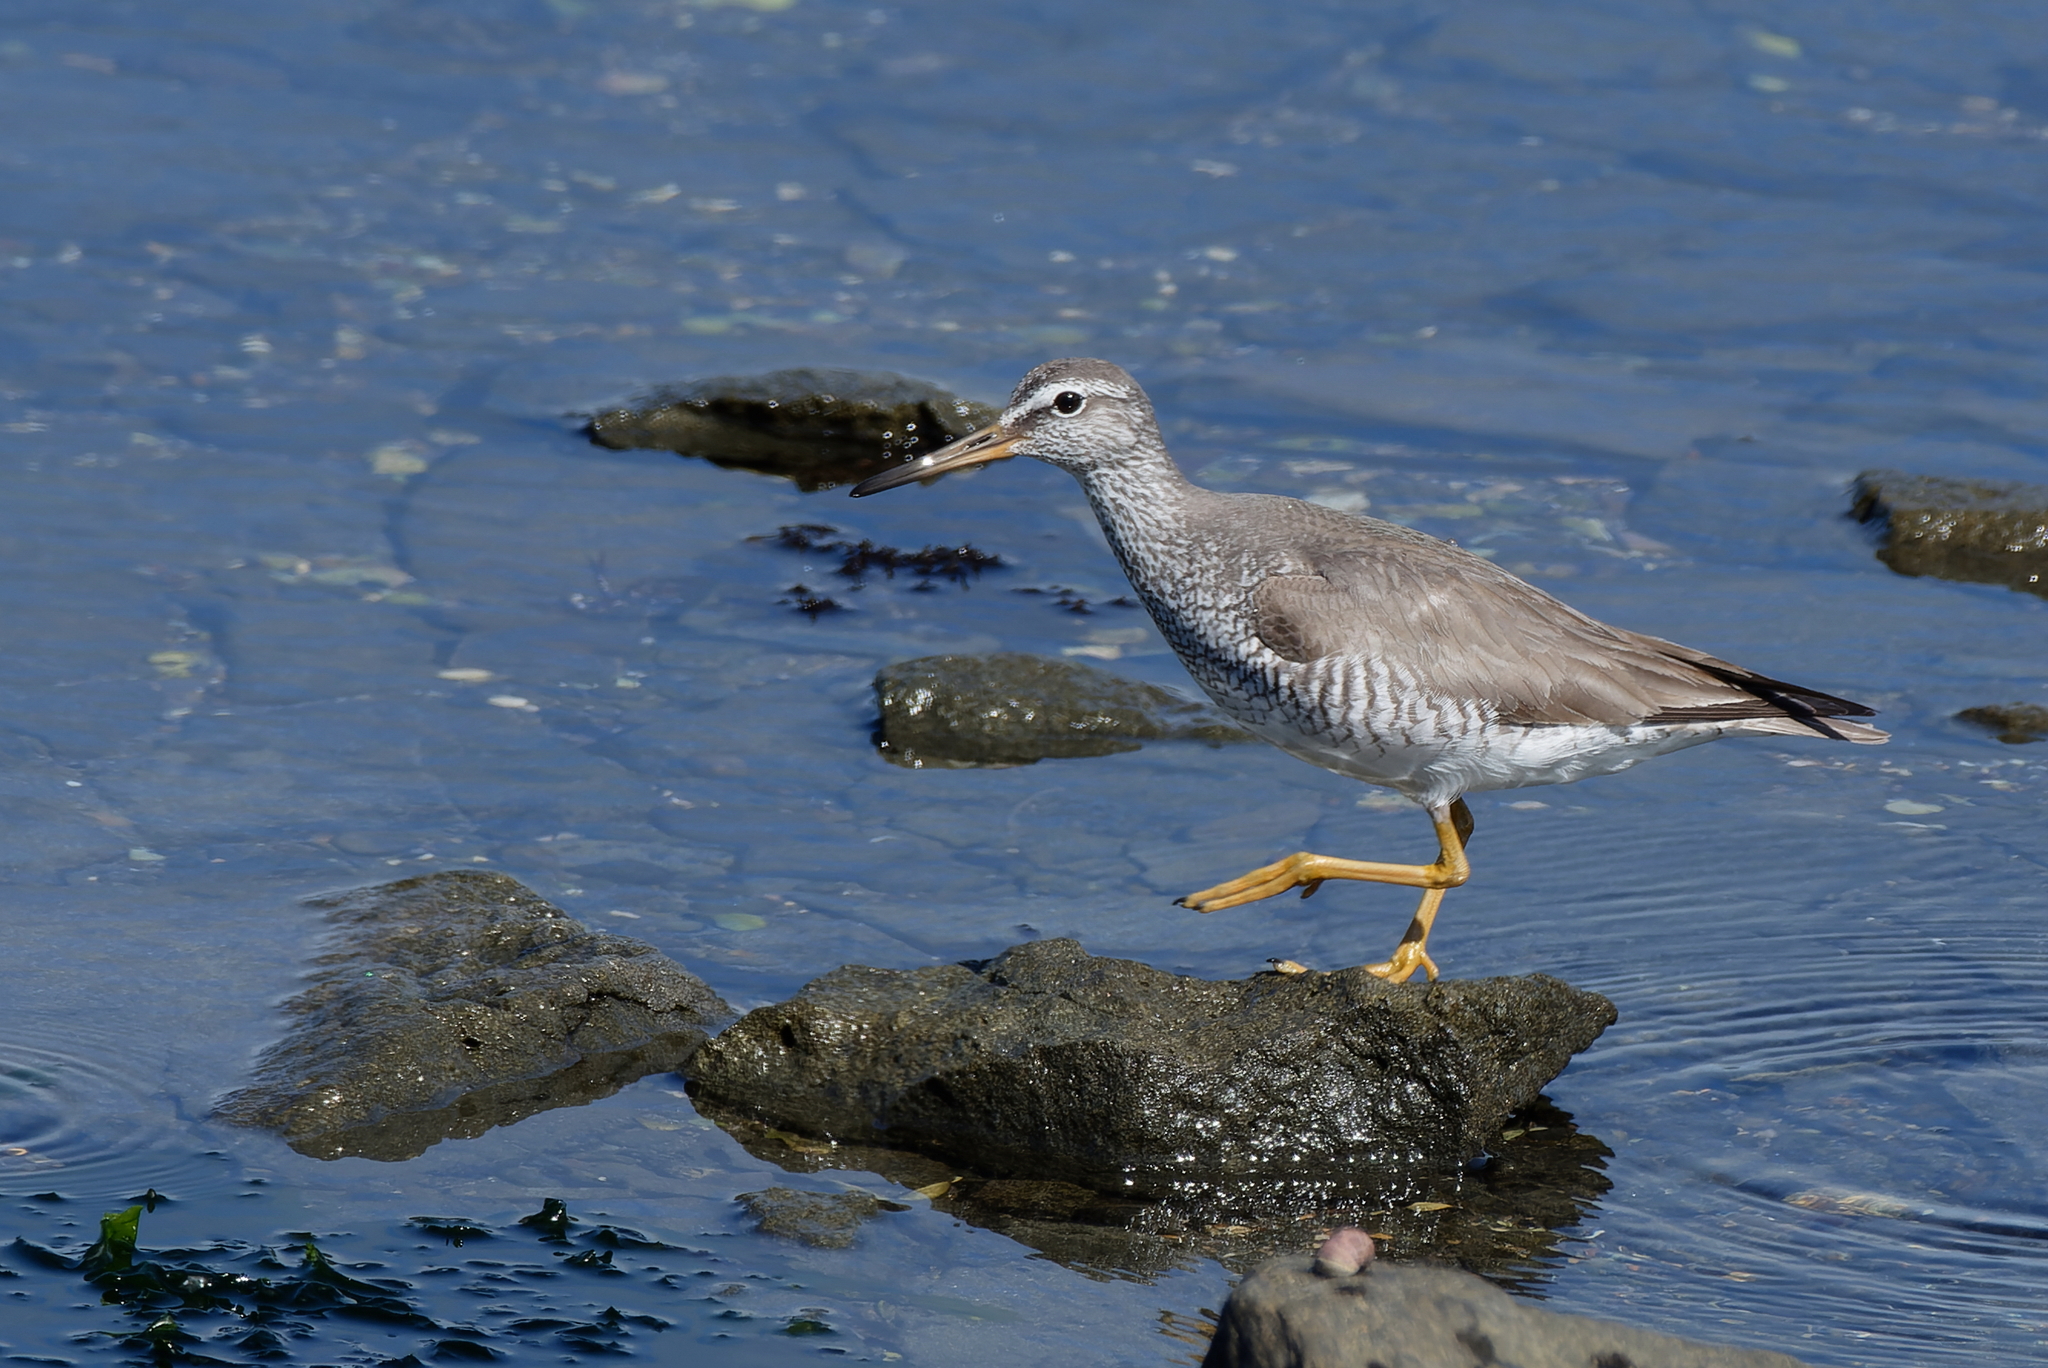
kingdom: Animalia
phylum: Chordata
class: Aves
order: Charadriiformes
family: Scolopacidae
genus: Tringa
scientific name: Tringa brevipes
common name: Grey-tailed tattler
